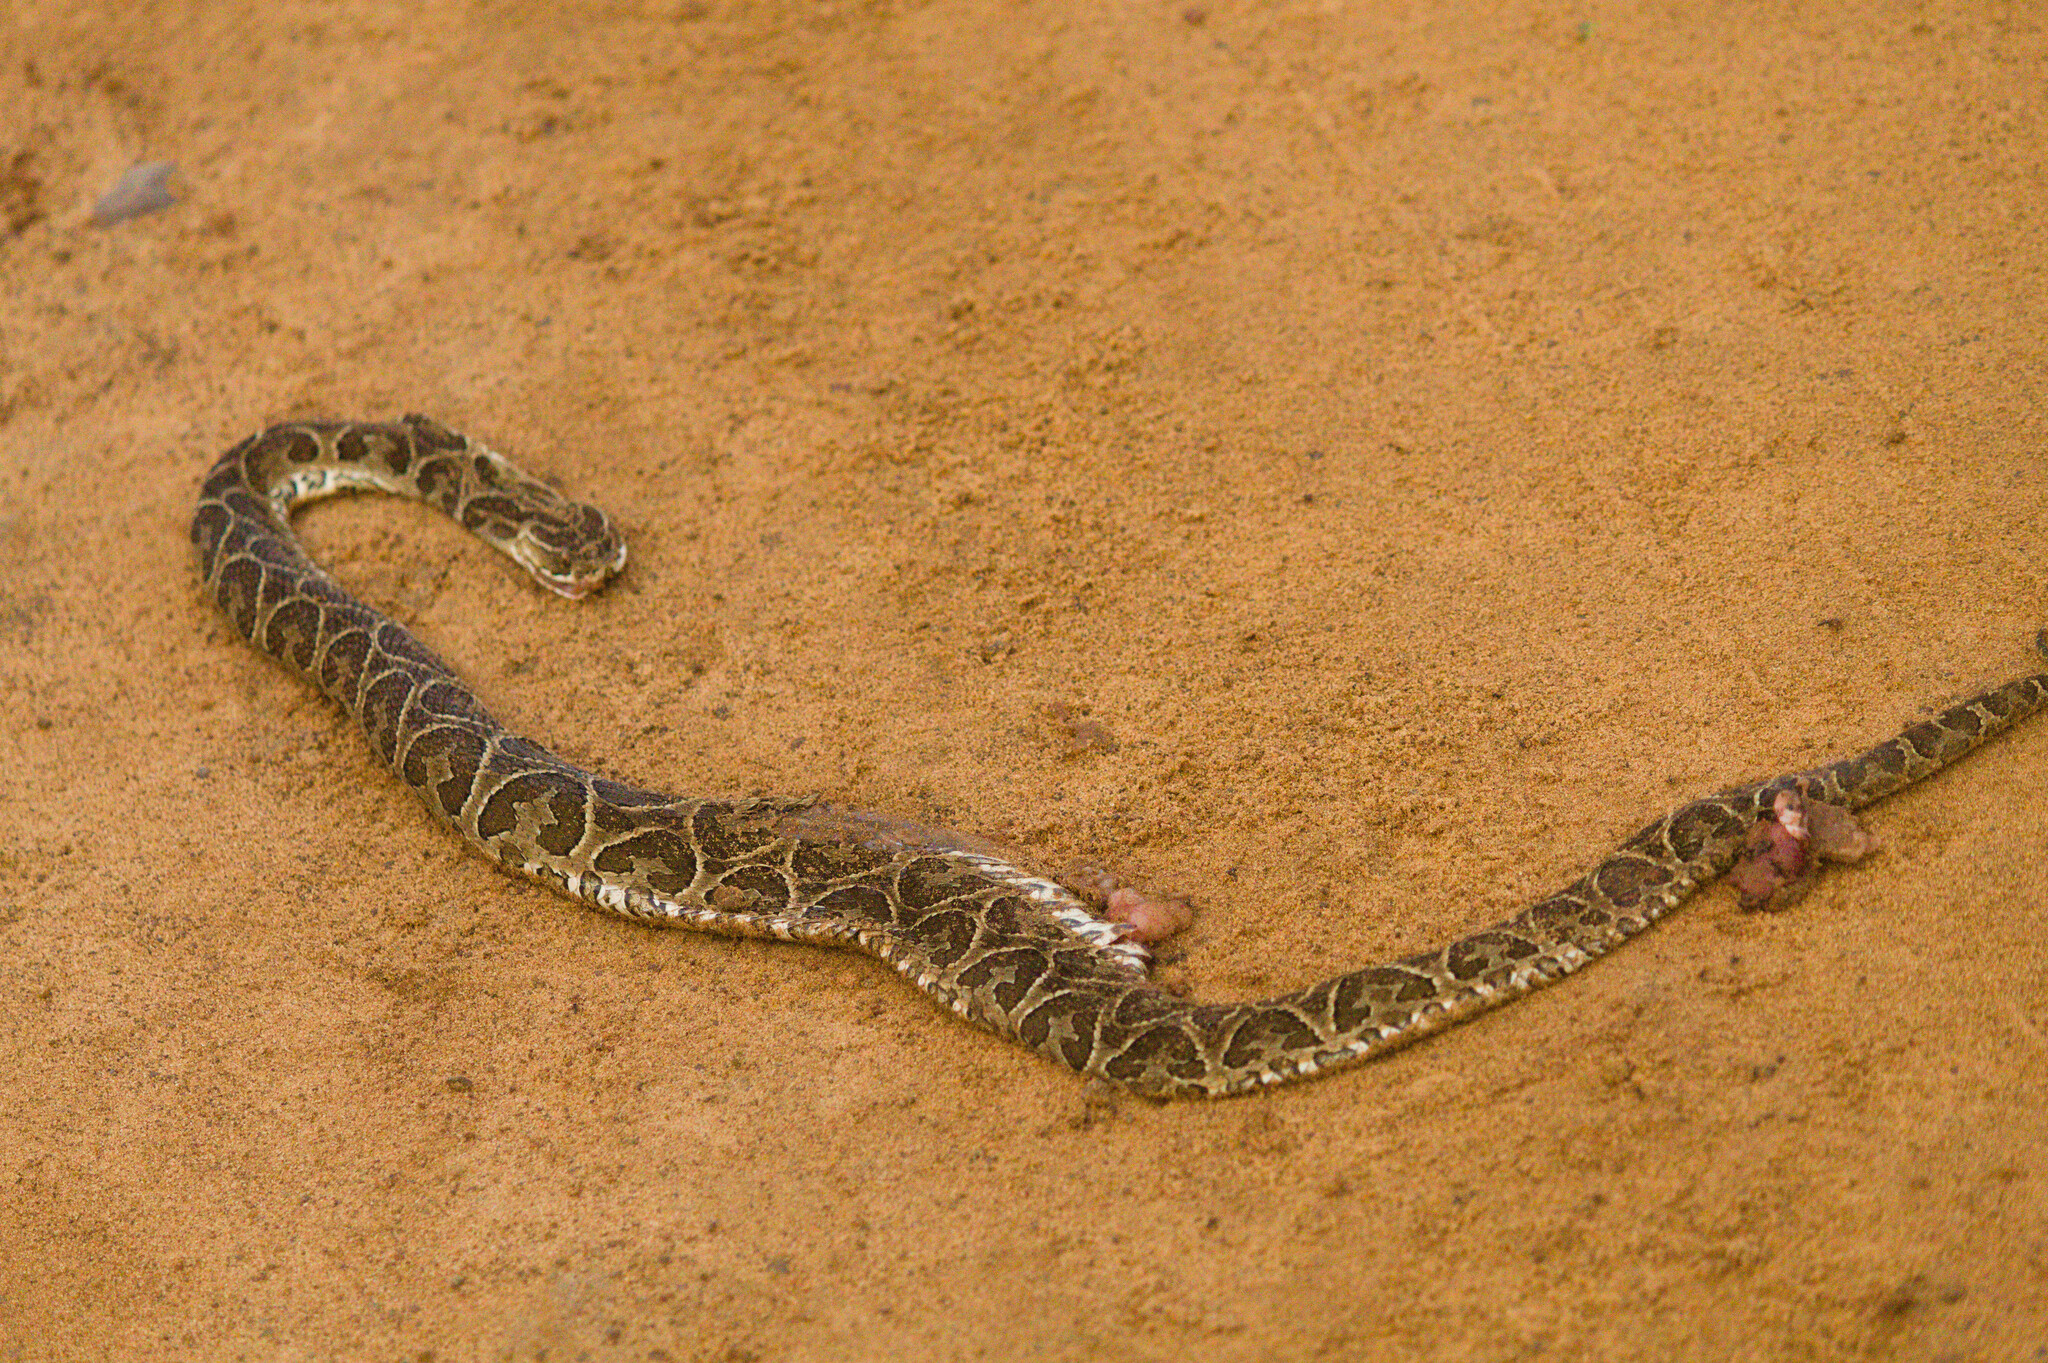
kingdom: Animalia
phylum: Chordata
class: Squamata
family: Viperidae
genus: Bothrops
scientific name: Bothrops alternatus
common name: Urutu
